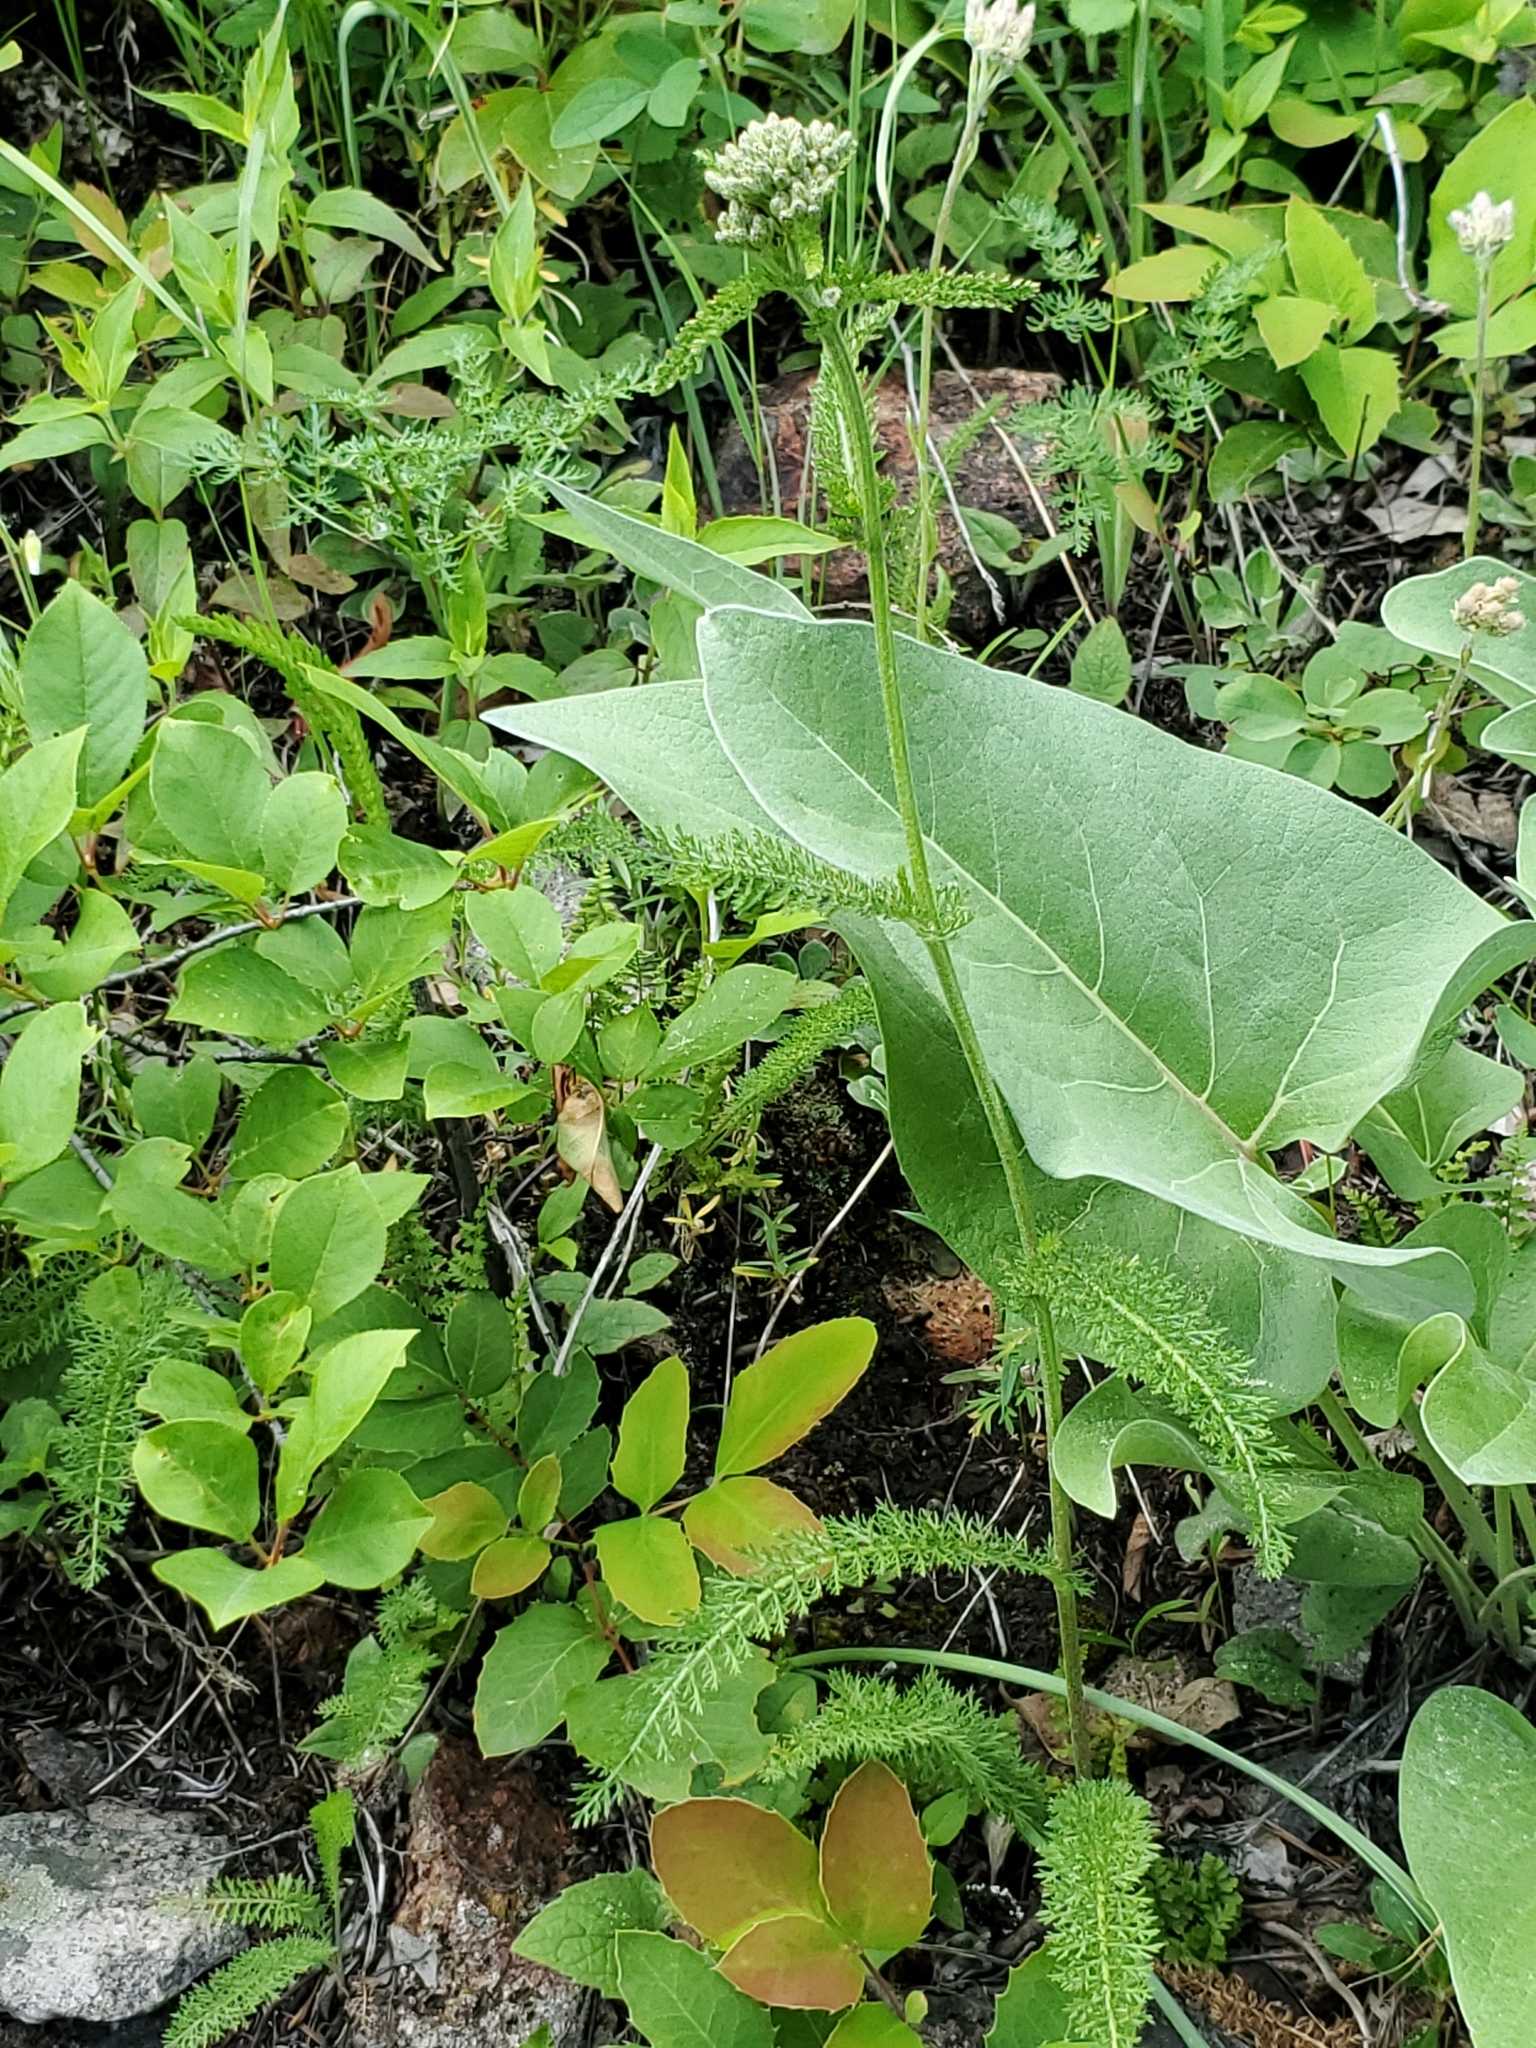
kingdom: Plantae
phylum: Tracheophyta
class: Magnoliopsida
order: Asterales
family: Asteraceae
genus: Achillea
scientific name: Achillea millefolium
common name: Yarrow
